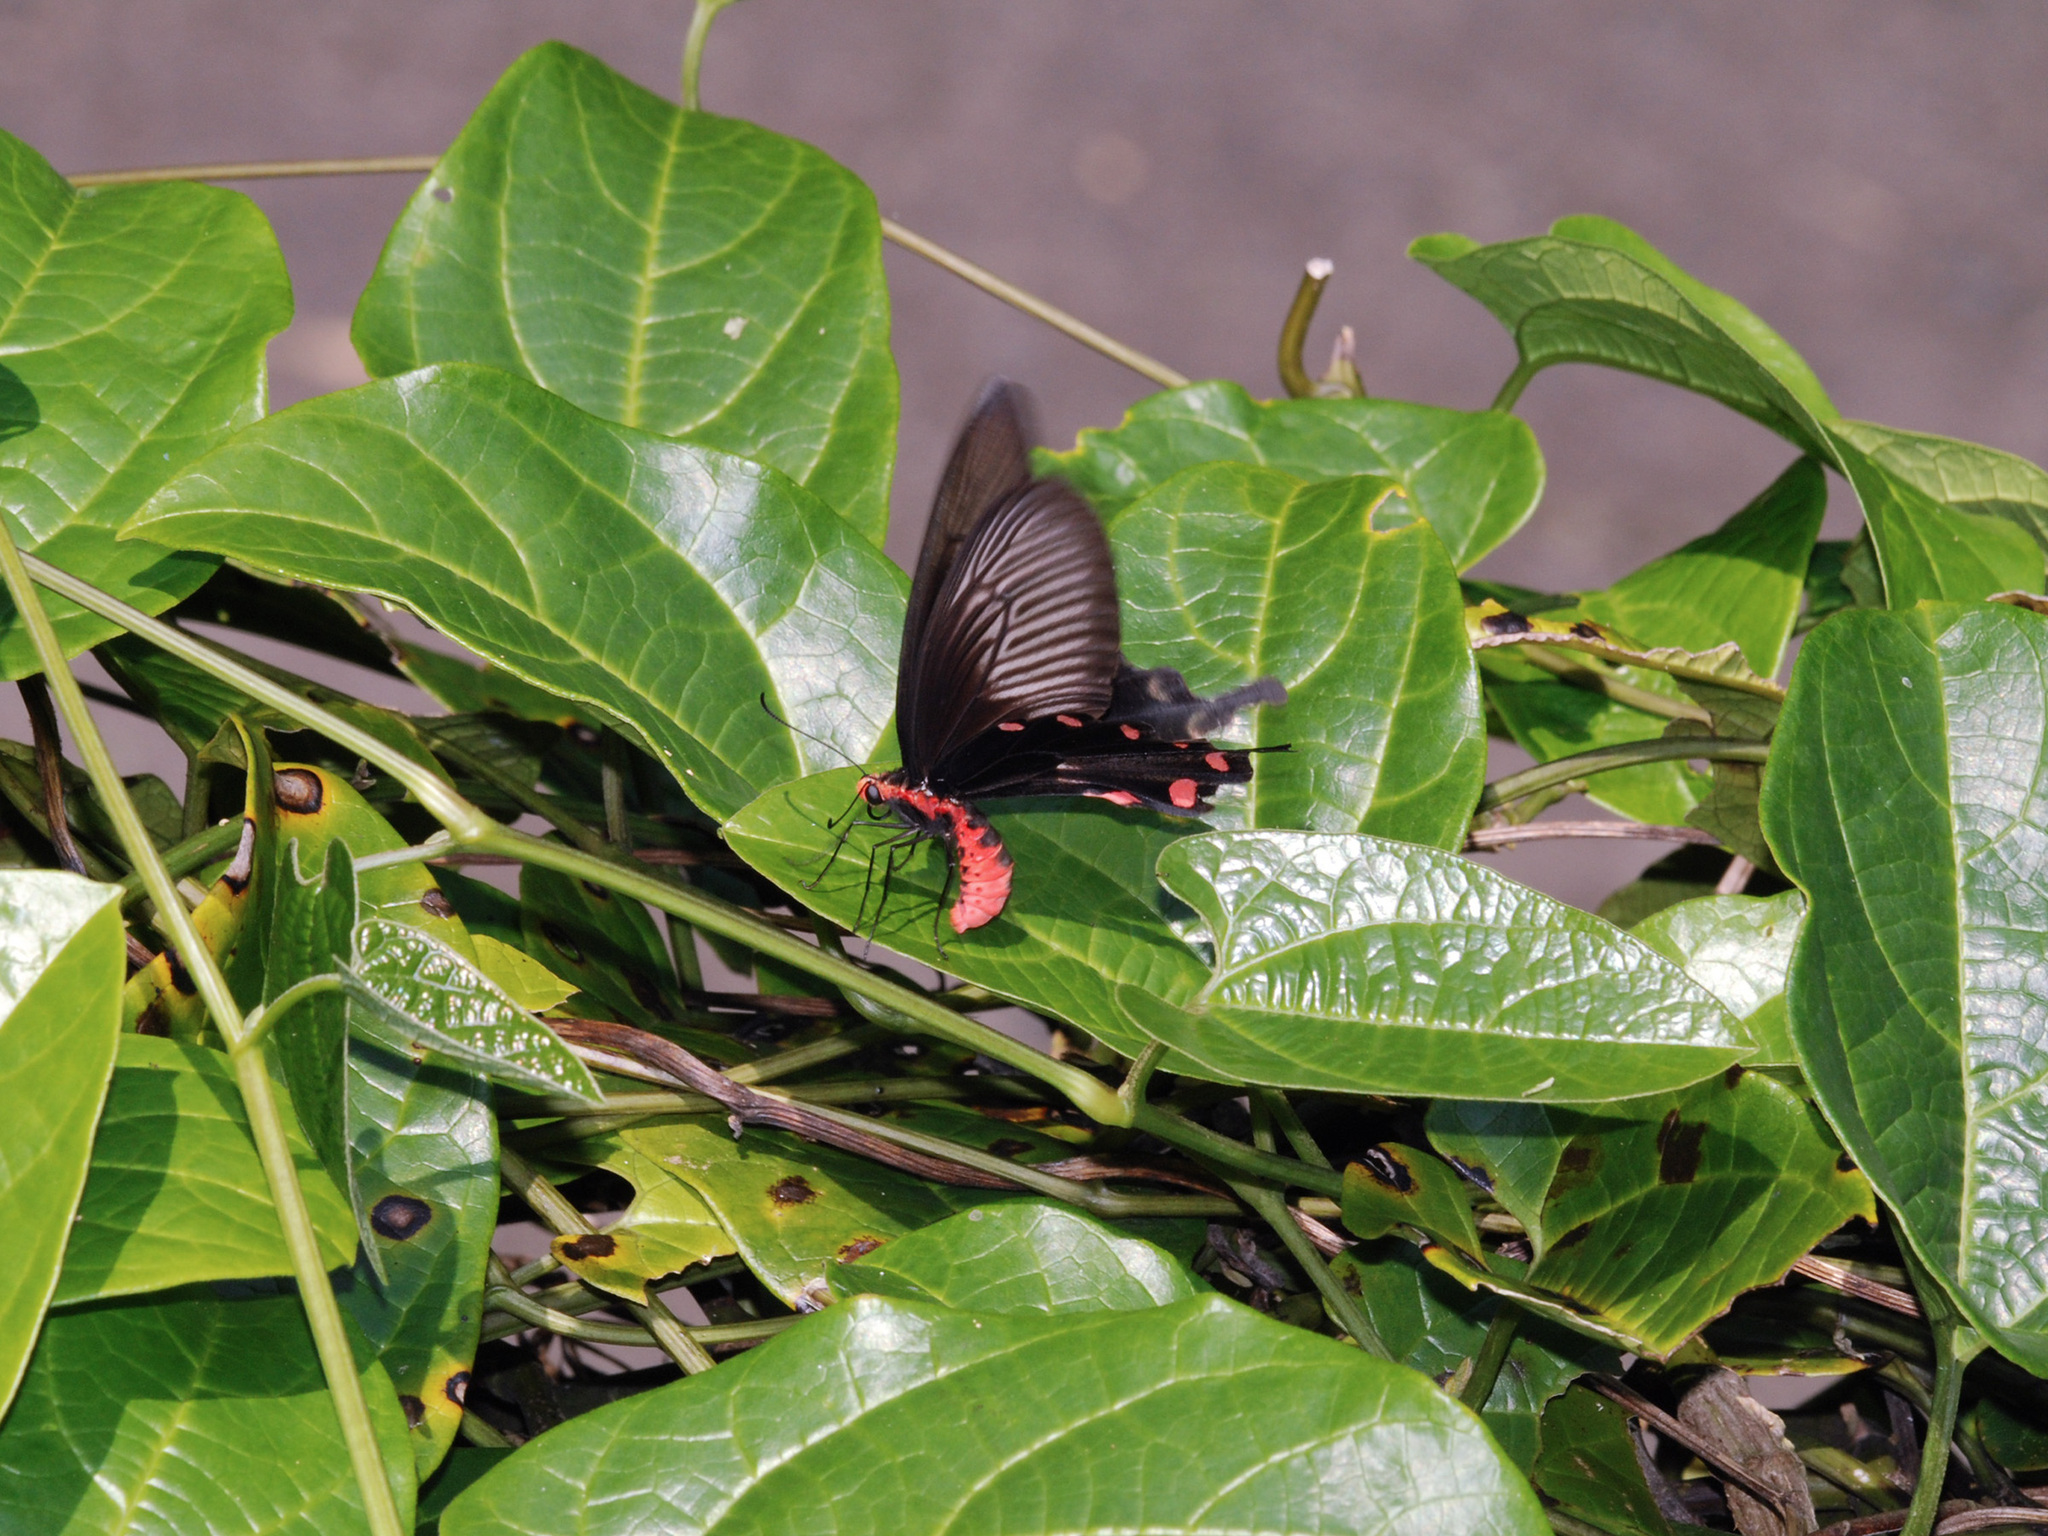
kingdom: Animalia
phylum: Arthropoda
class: Insecta
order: Lepidoptera
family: Papilionidae
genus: Pachliopta
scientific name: Pachliopta aristolochiae
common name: Common rose
